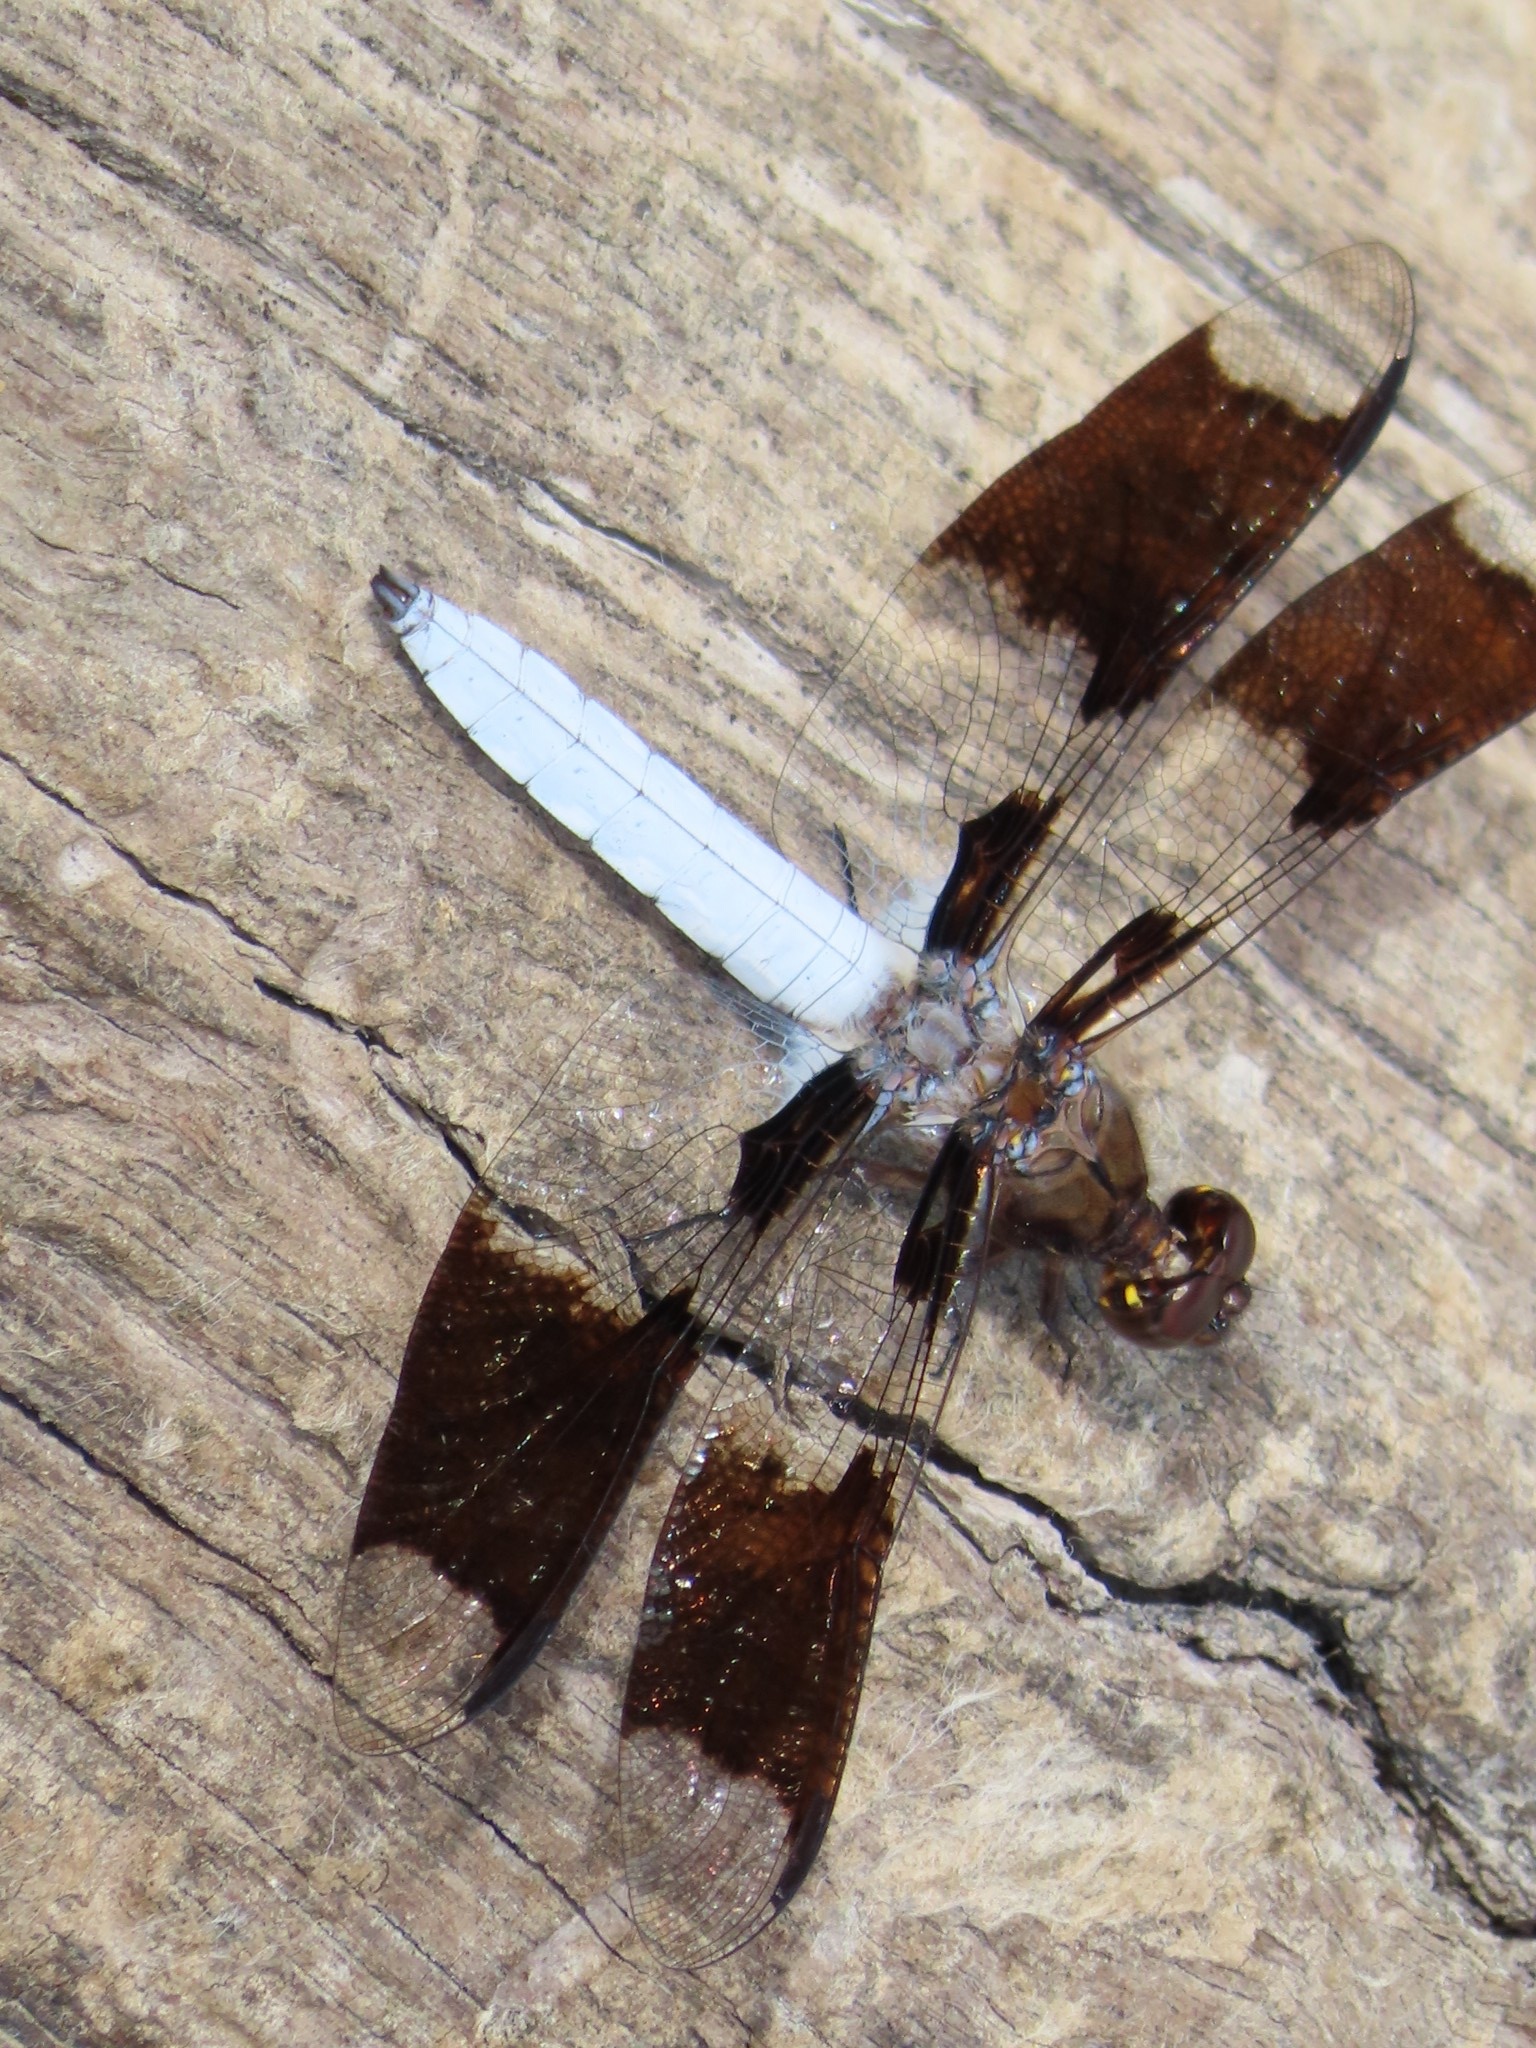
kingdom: Animalia
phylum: Arthropoda
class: Insecta
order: Odonata
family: Libellulidae
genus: Plathemis
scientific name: Plathemis lydia
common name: Common whitetail
